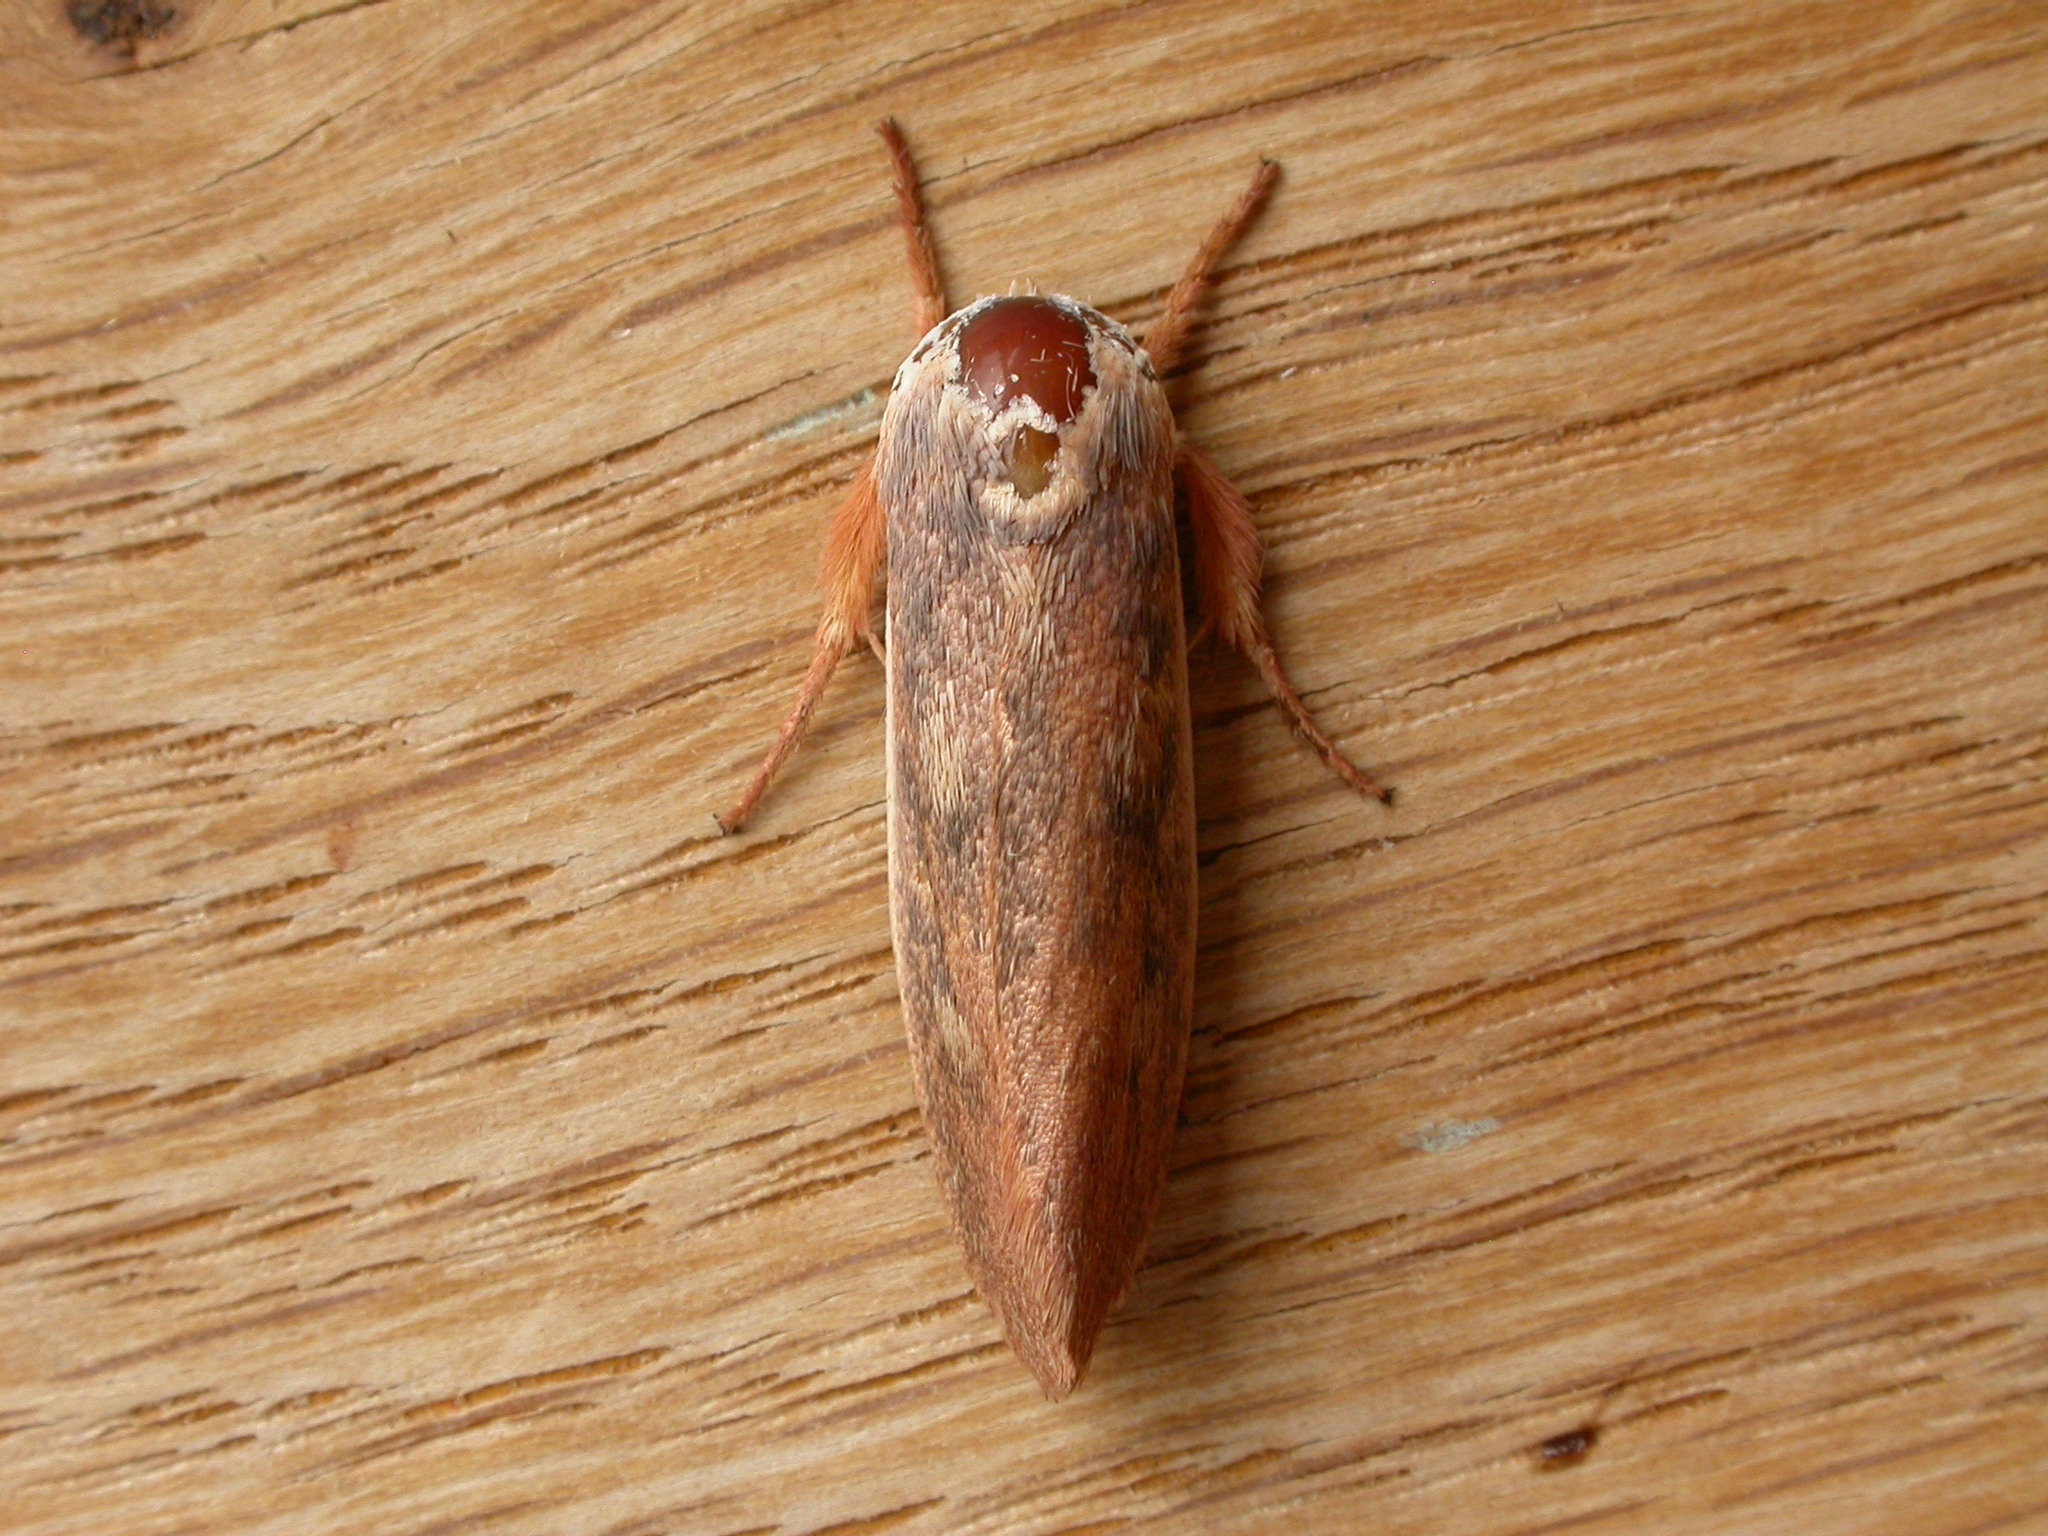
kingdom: Animalia
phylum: Arthropoda
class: Insecta
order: Lepidoptera
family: Xyloryctidae
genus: Cryptophasa
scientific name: Cryptophasa rubescens
